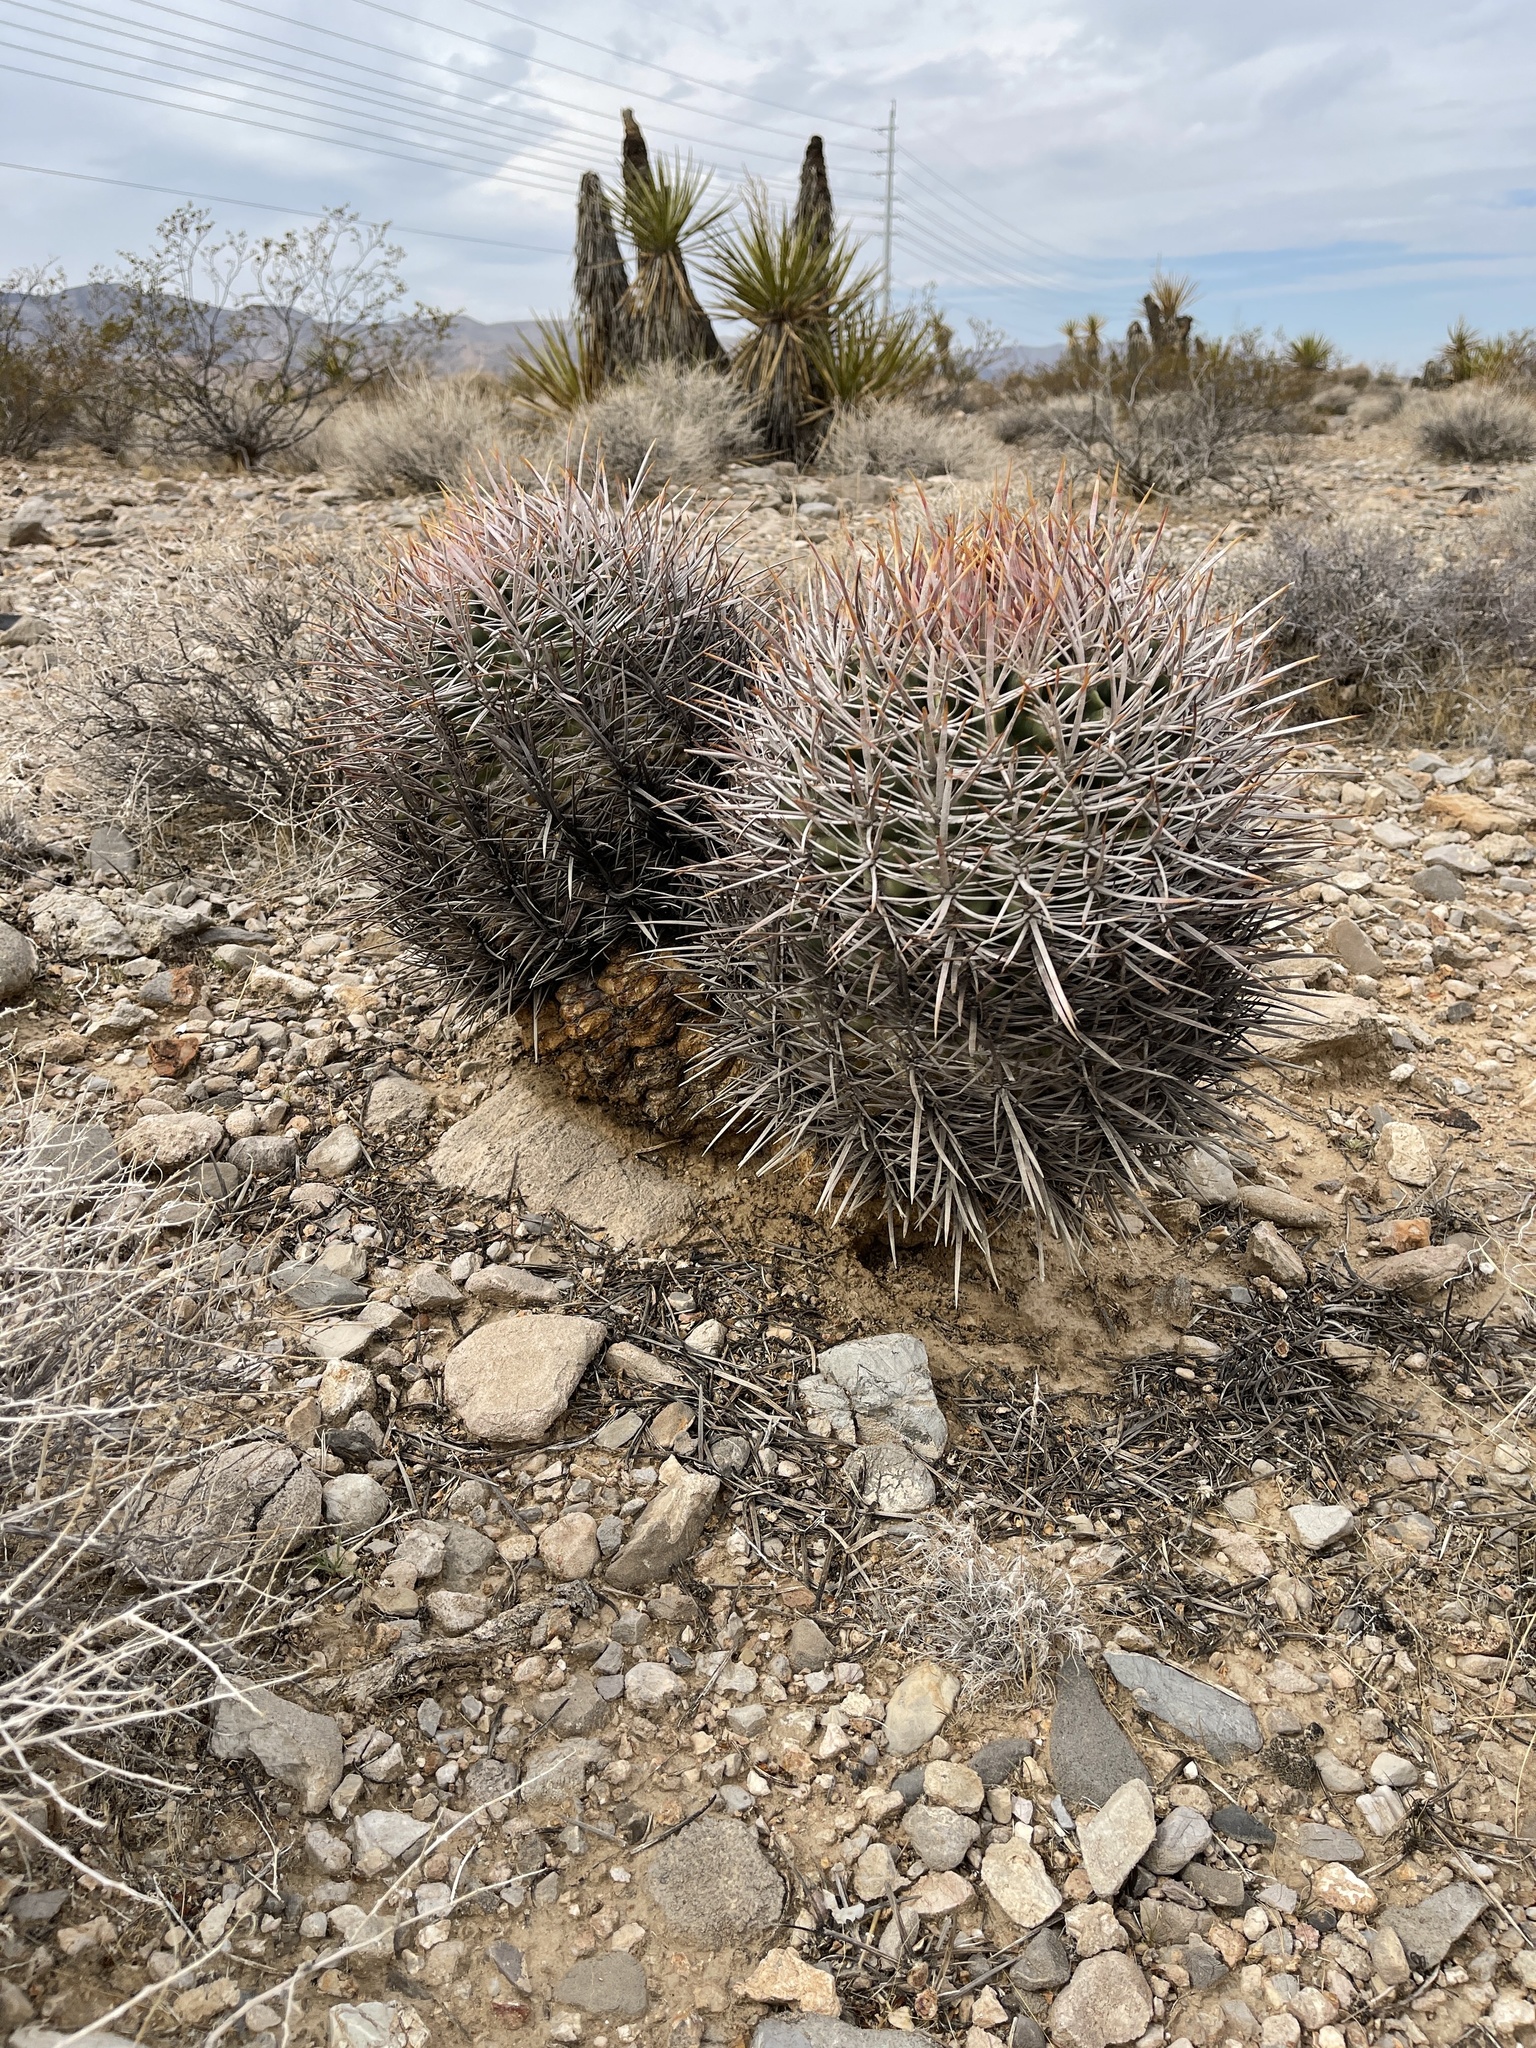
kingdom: Plantae
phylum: Tracheophyta
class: Magnoliopsida
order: Caryophyllales
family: Cactaceae
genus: Echinocactus
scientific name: Echinocactus polycephalus
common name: Cottontop cactus
